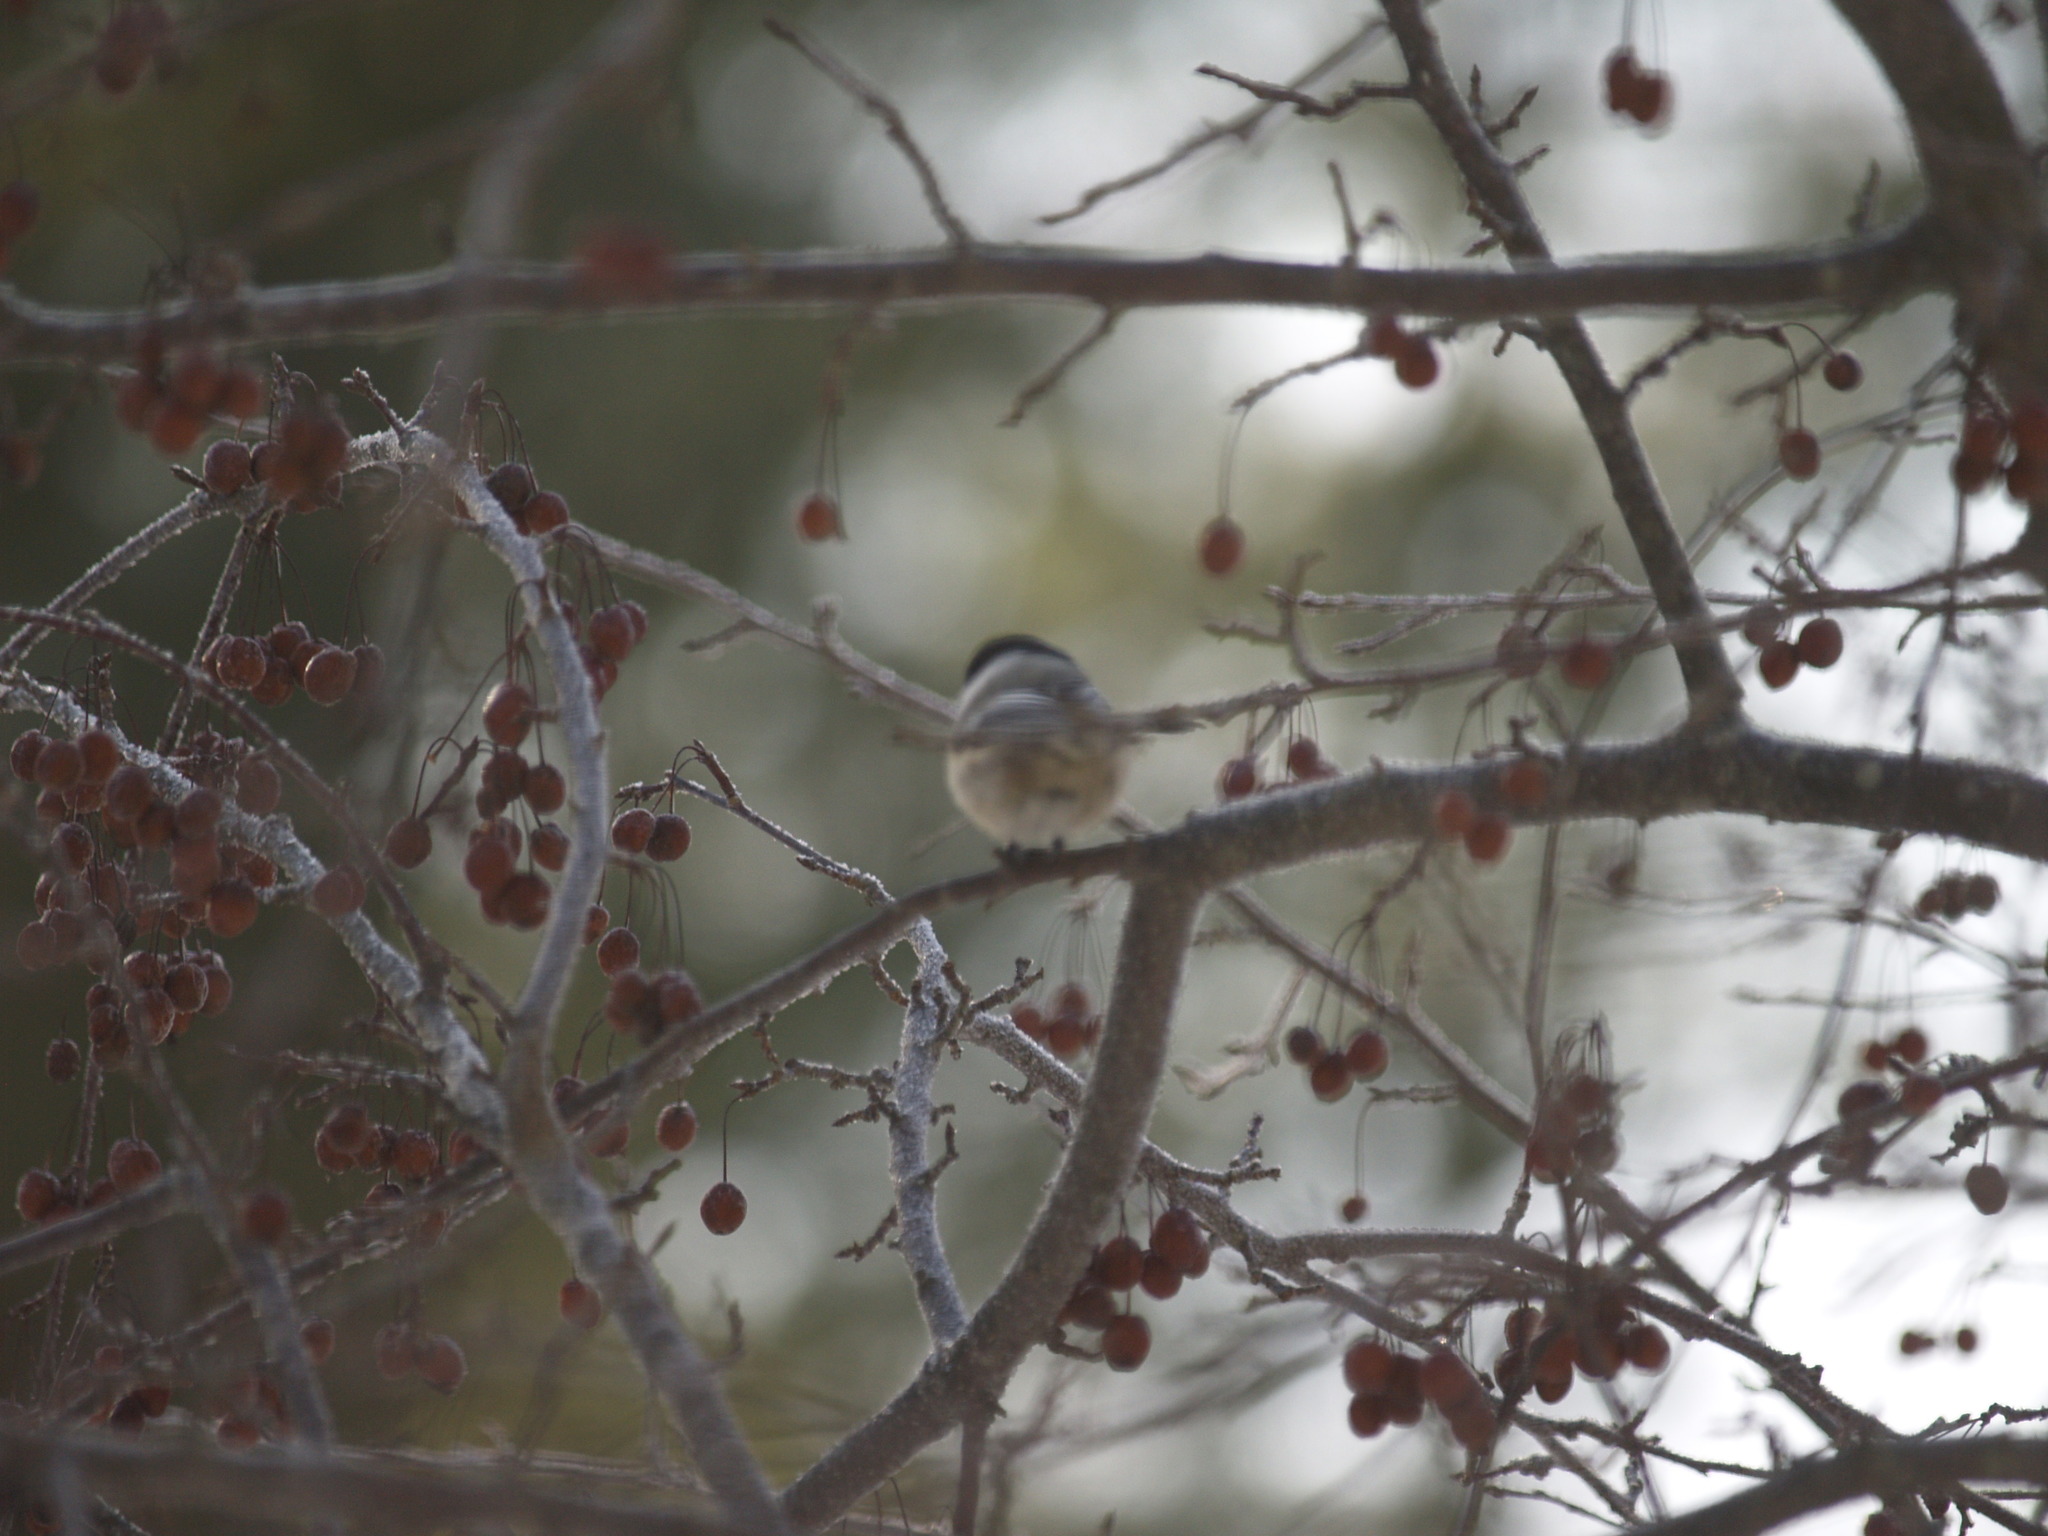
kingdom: Animalia
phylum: Chordata
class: Aves
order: Passeriformes
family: Paridae
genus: Poecile
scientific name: Poecile atricapillus
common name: Black-capped chickadee
